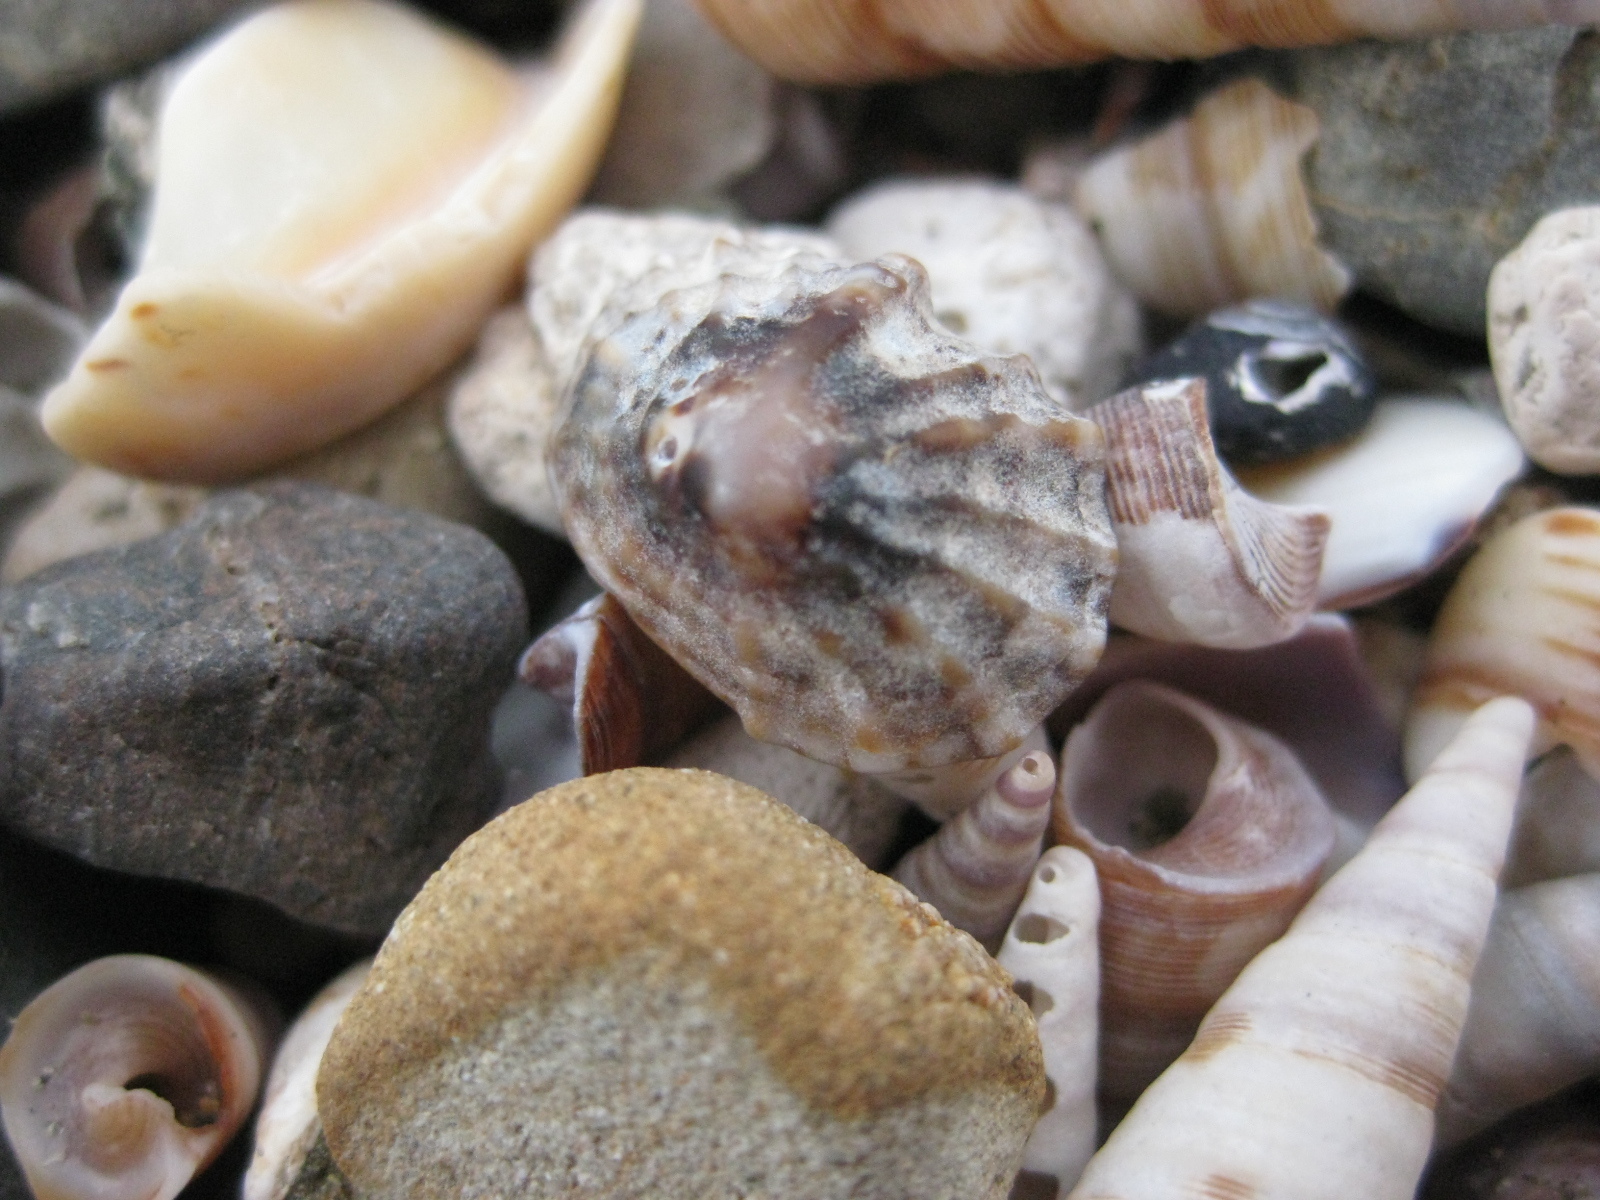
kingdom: Animalia
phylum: Mollusca
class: Gastropoda
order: Siphonariida
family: Siphonariidae
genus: Siphonaria
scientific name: Siphonaria australis
